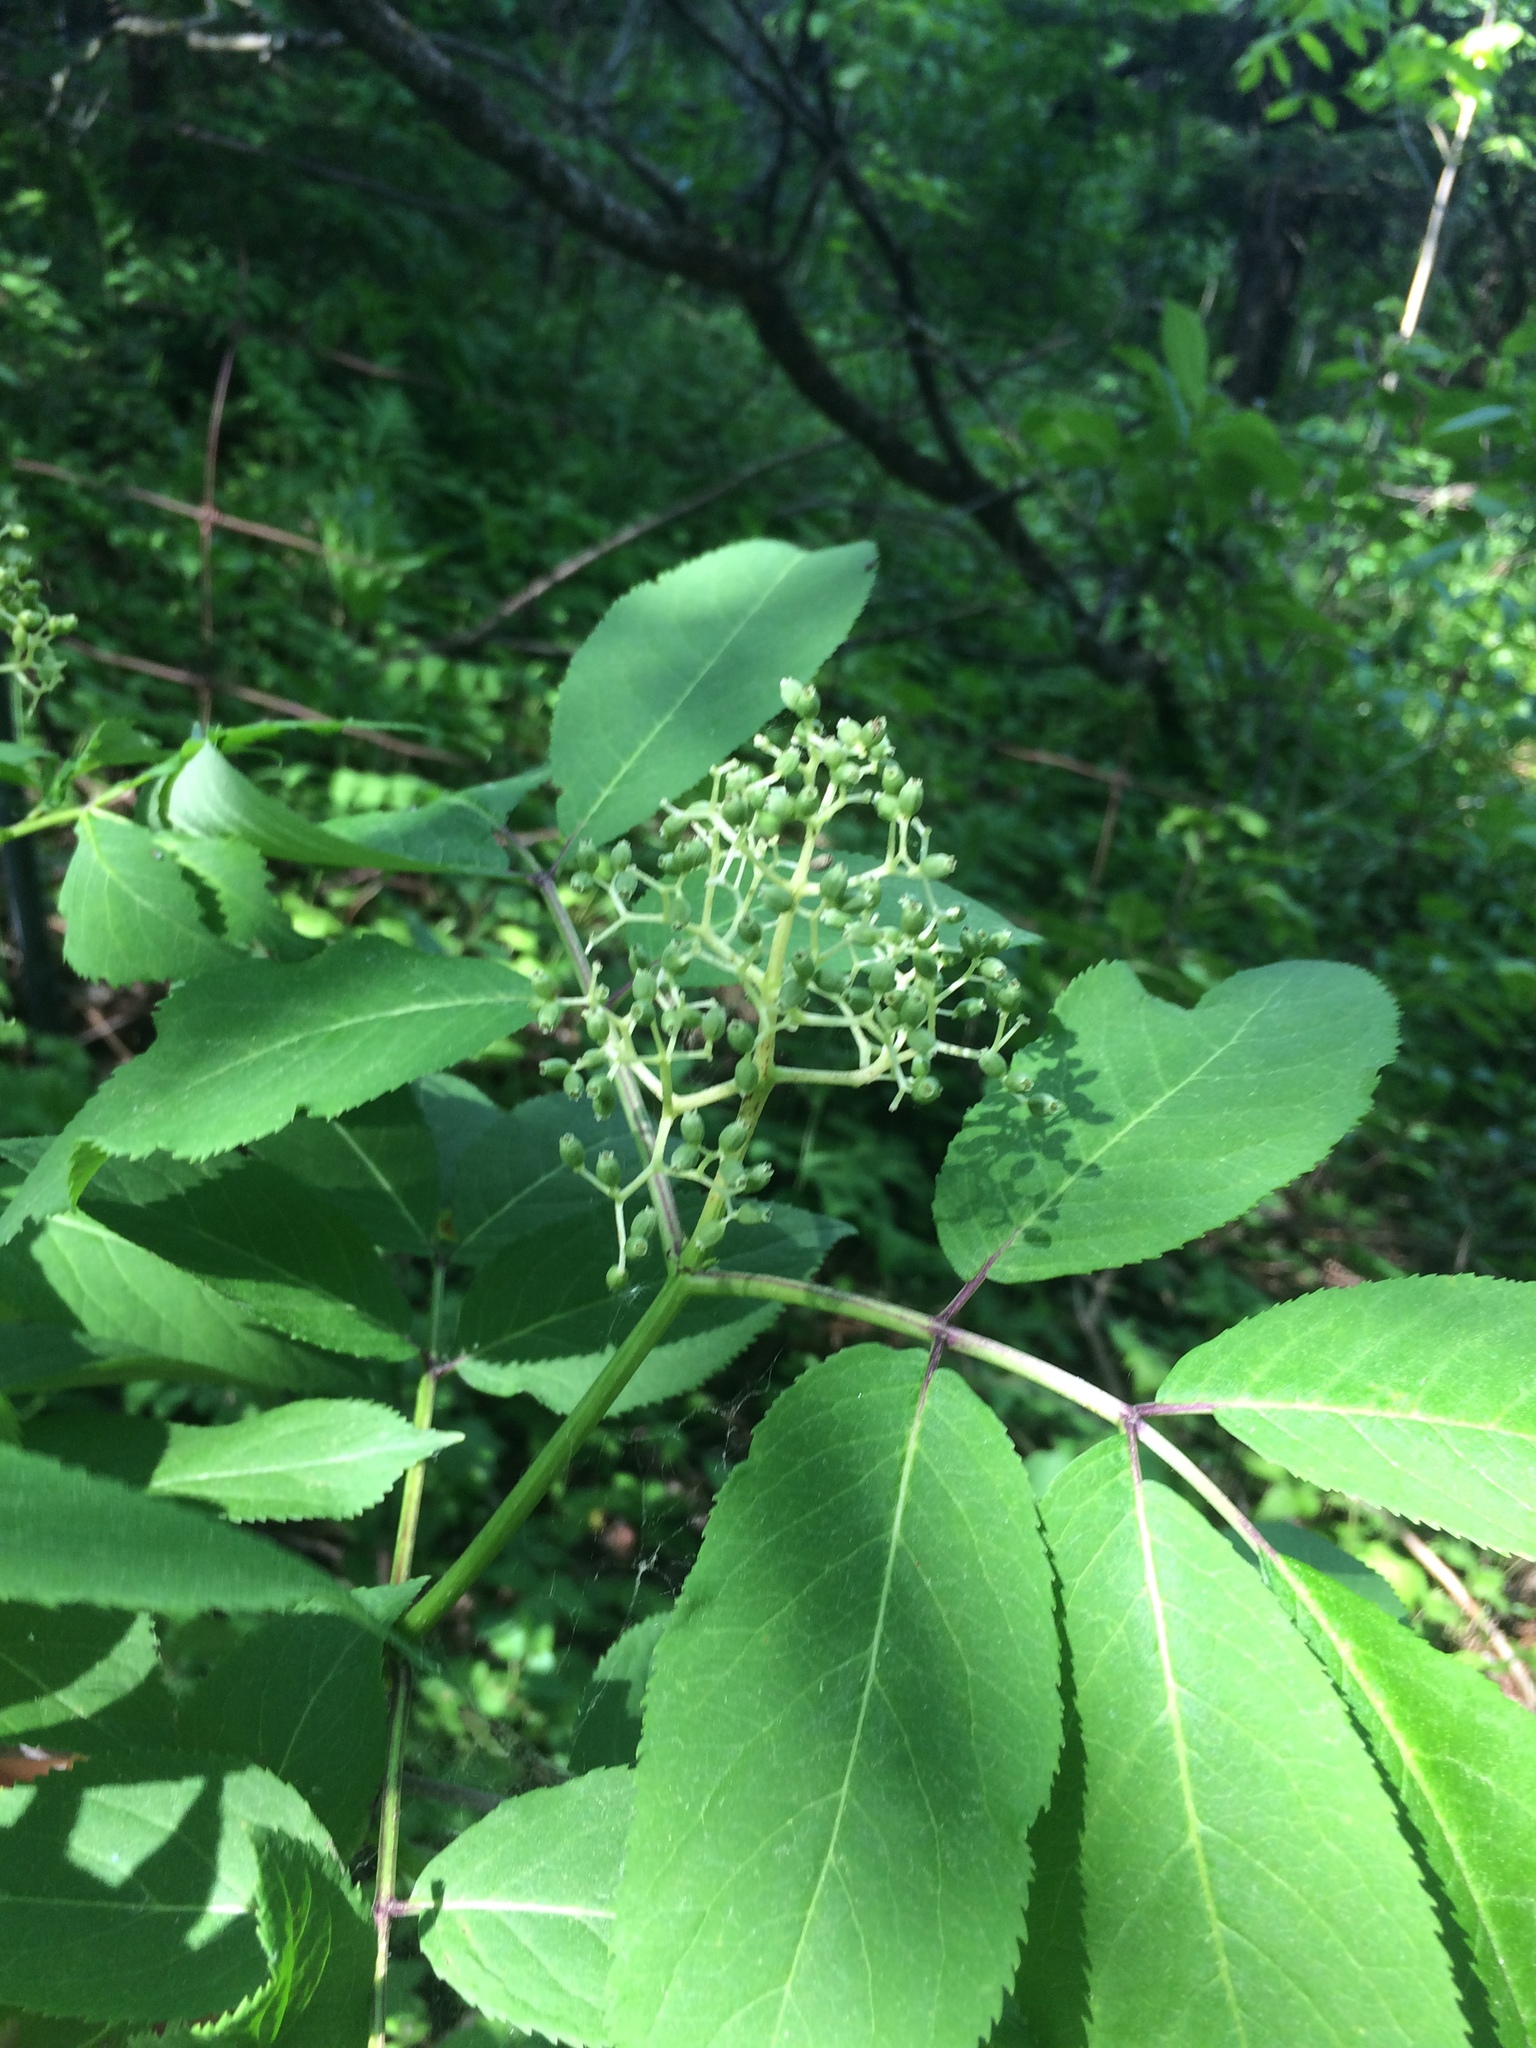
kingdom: Plantae
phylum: Tracheophyta
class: Magnoliopsida
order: Dipsacales
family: Viburnaceae
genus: Sambucus
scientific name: Sambucus racemosa
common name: Red-berried elder
